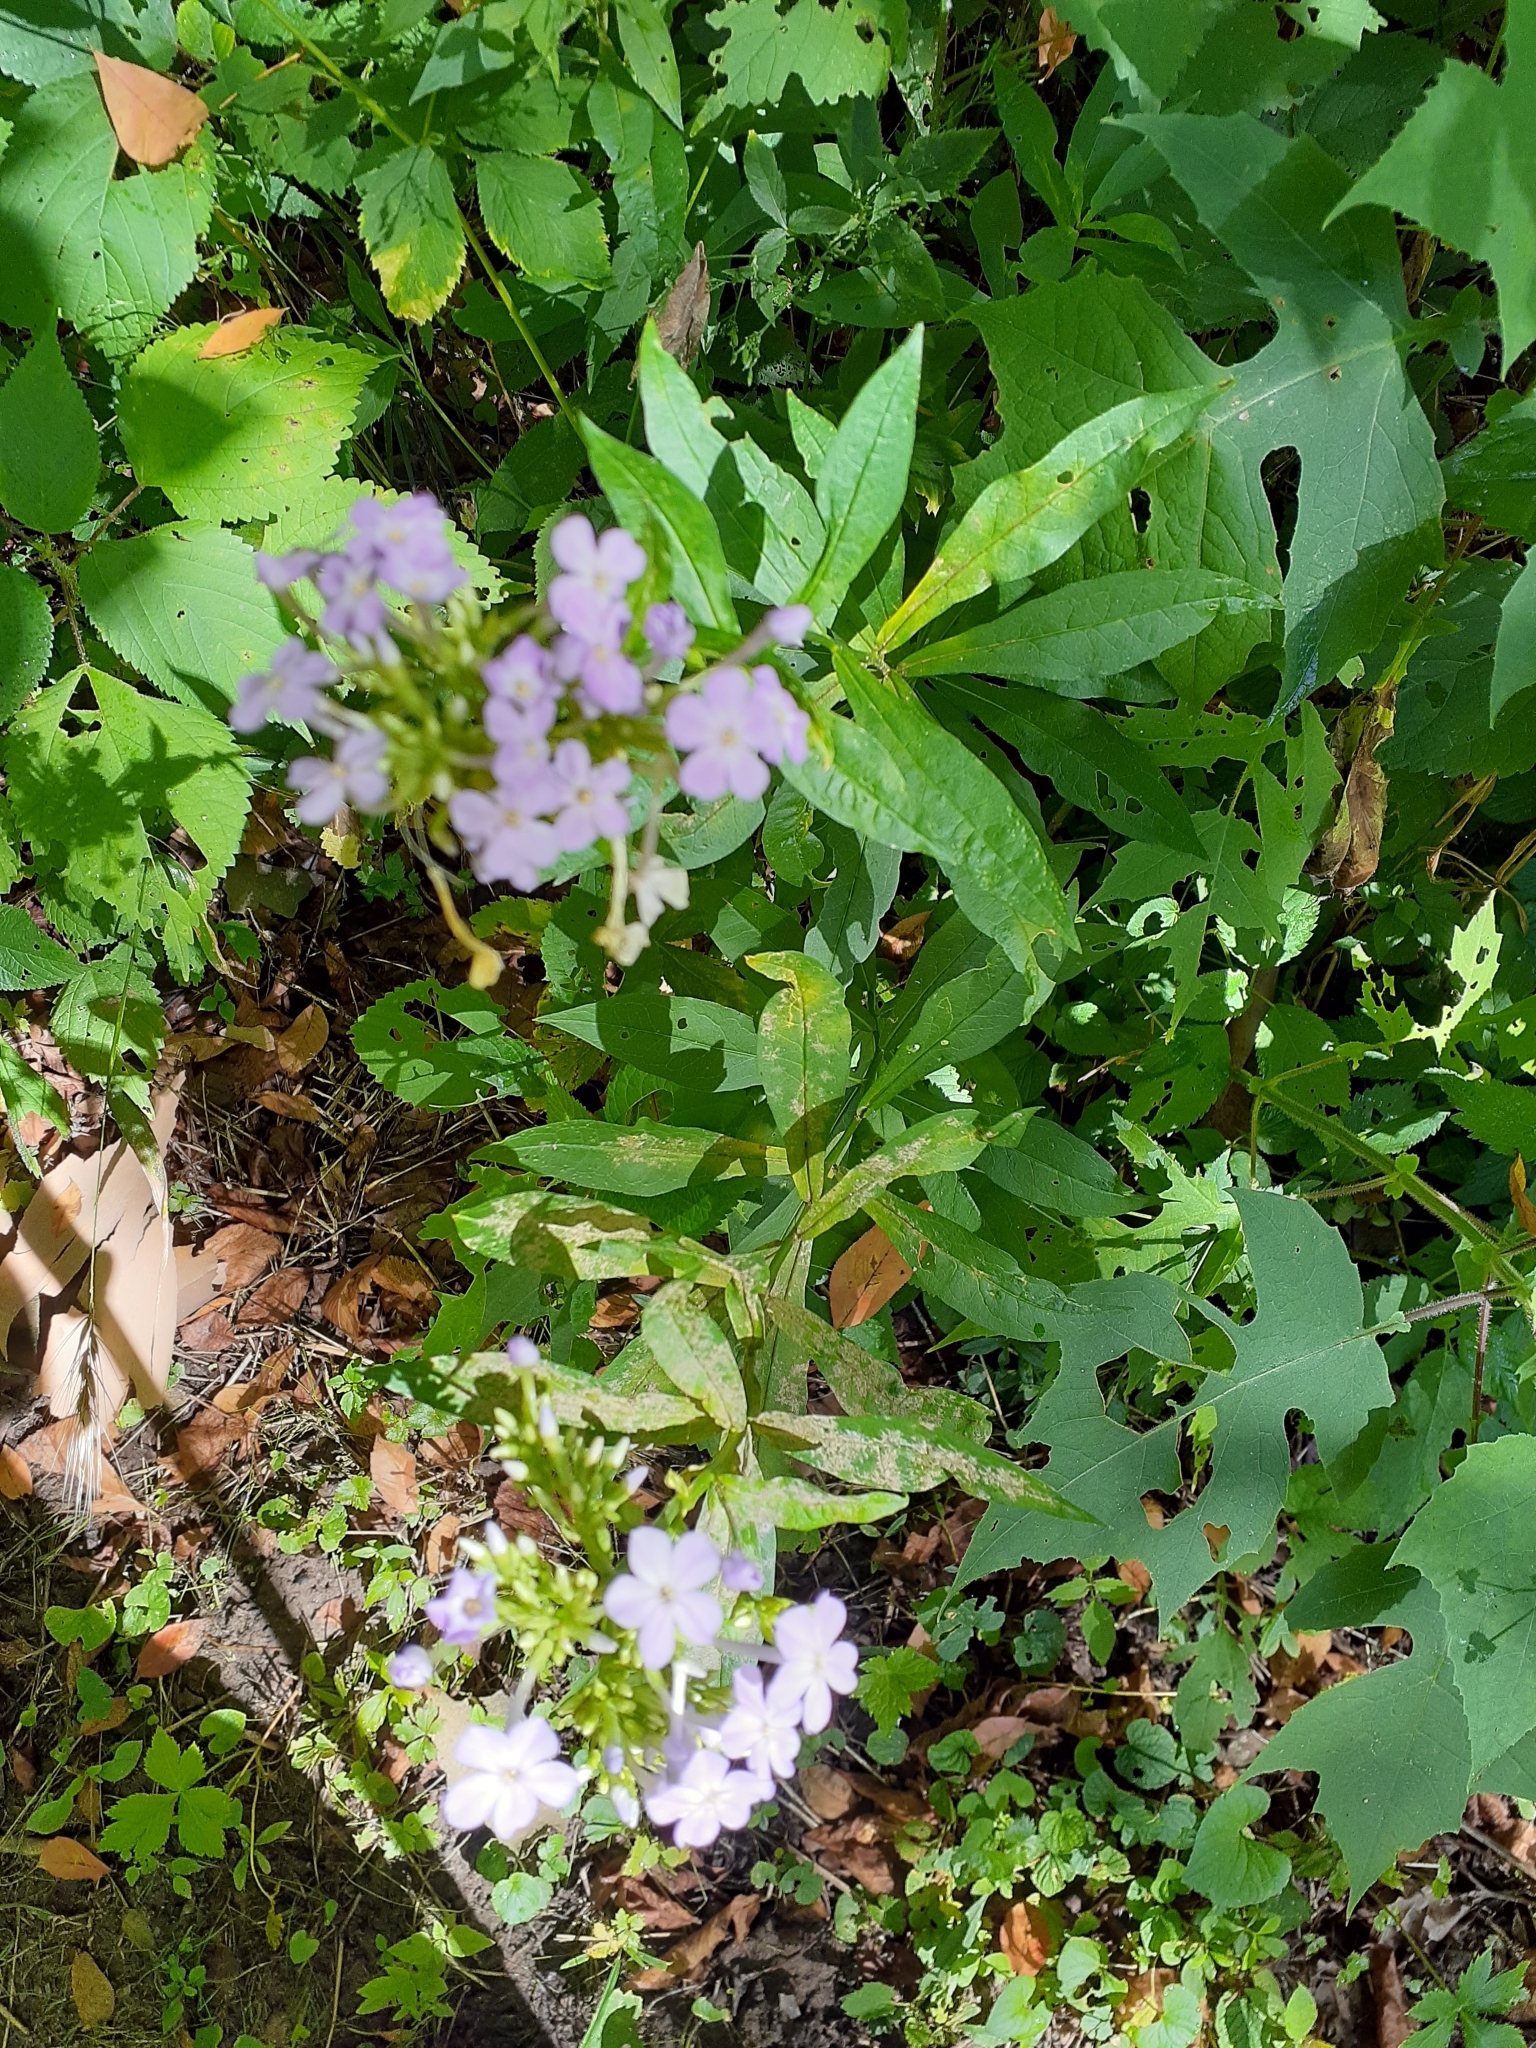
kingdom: Plantae
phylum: Tracheophyta
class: Magnoliopsida
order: Ericales
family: Polemoniaceae
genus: Phlox
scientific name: Phlox paniculata
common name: Fall phlox
